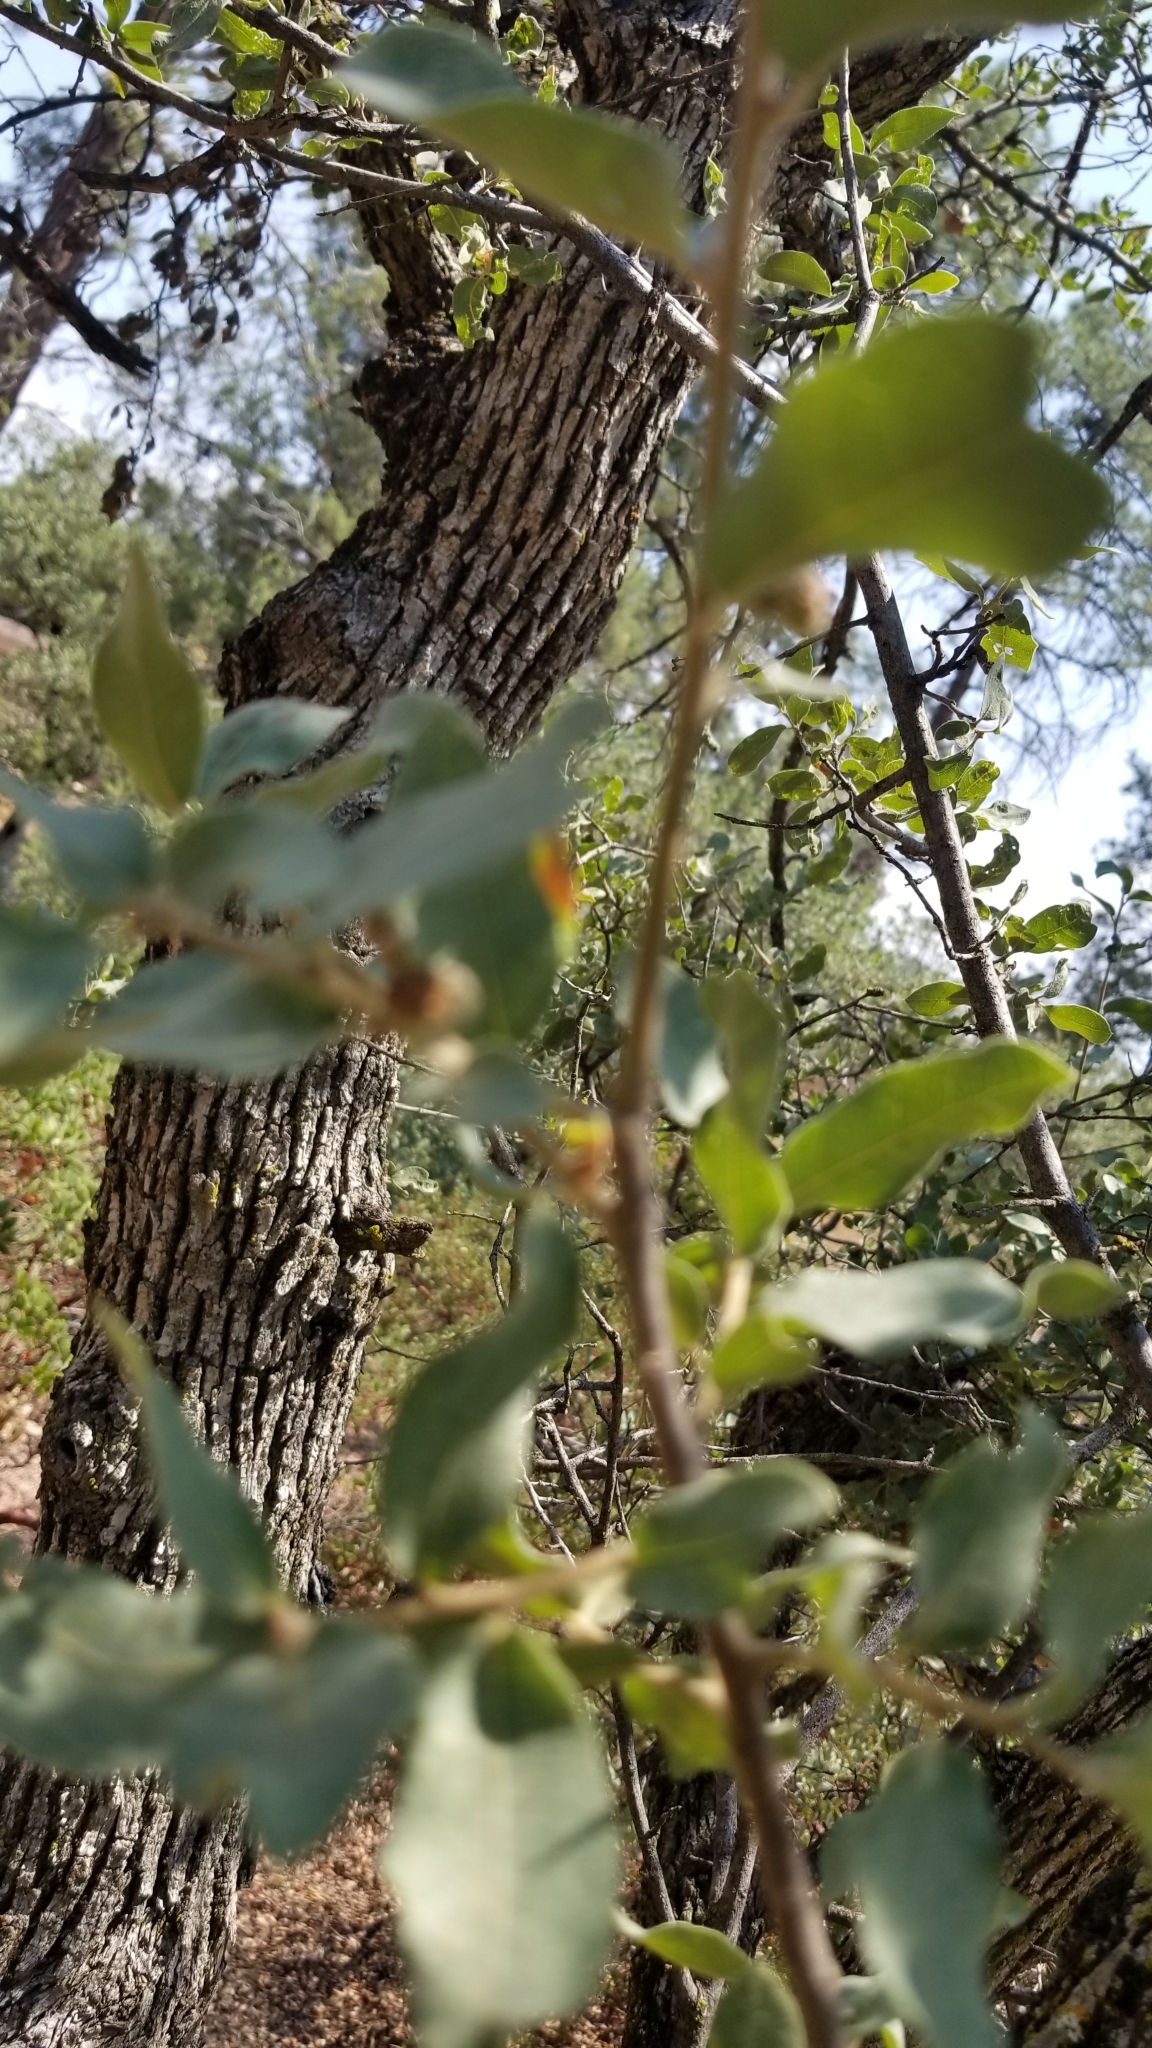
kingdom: Plantae
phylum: Tracheophyta
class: Magnoliopsida
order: Fagales
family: Fagaceae
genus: Quercus
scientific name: Quercus grisea
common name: Gray oak
